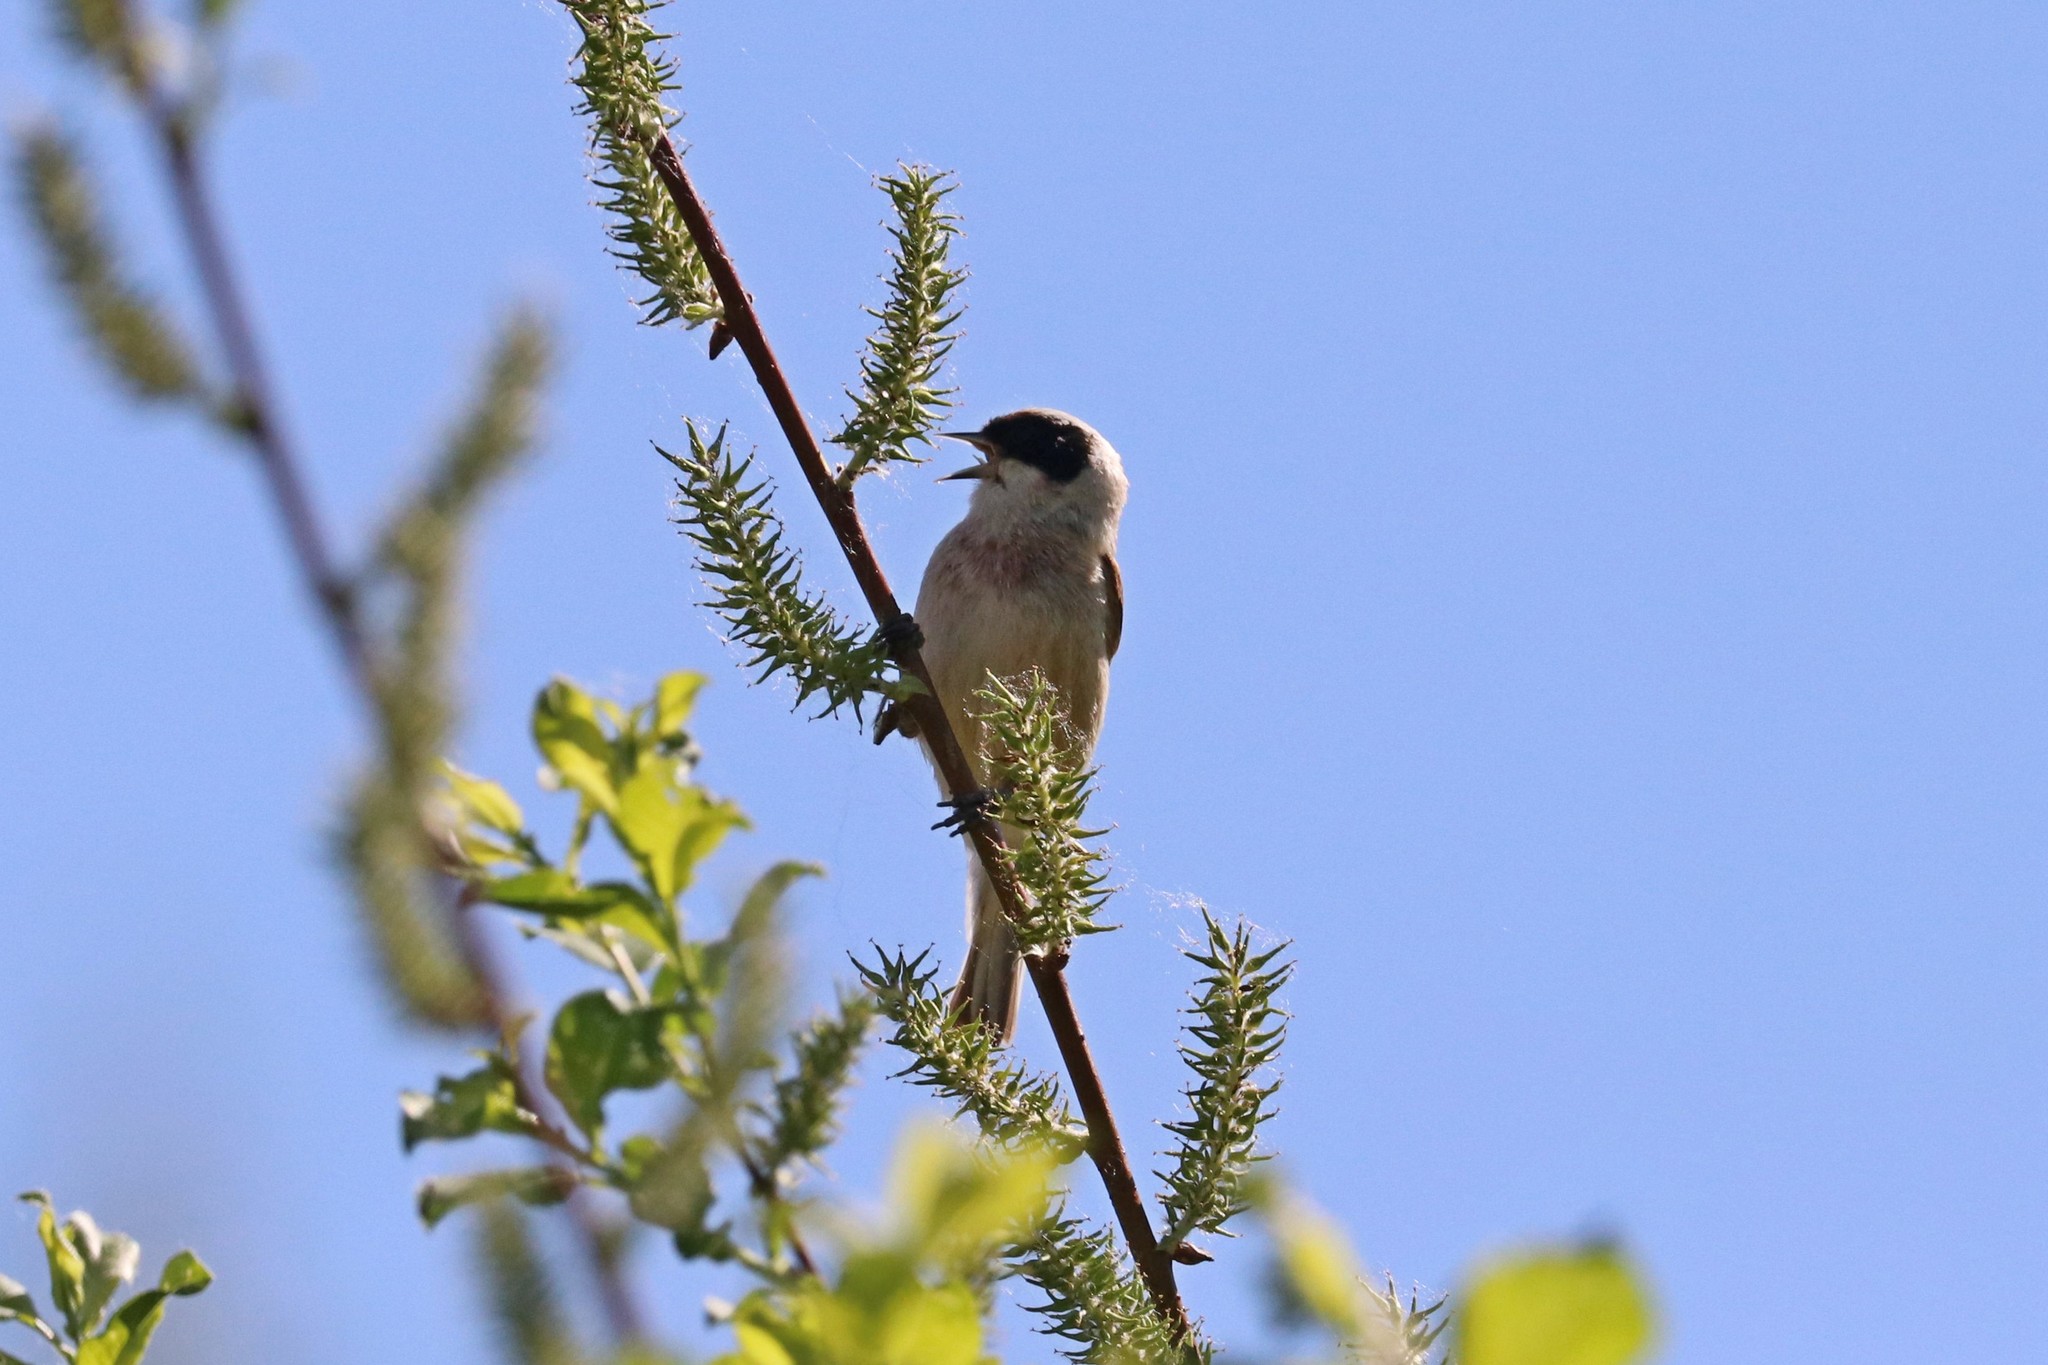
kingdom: Animalia
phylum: Chordata
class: Aves
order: Passeriformes
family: Remizidae
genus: Remiz
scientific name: Remiz pendulinus
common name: Eurasian penduline tit
